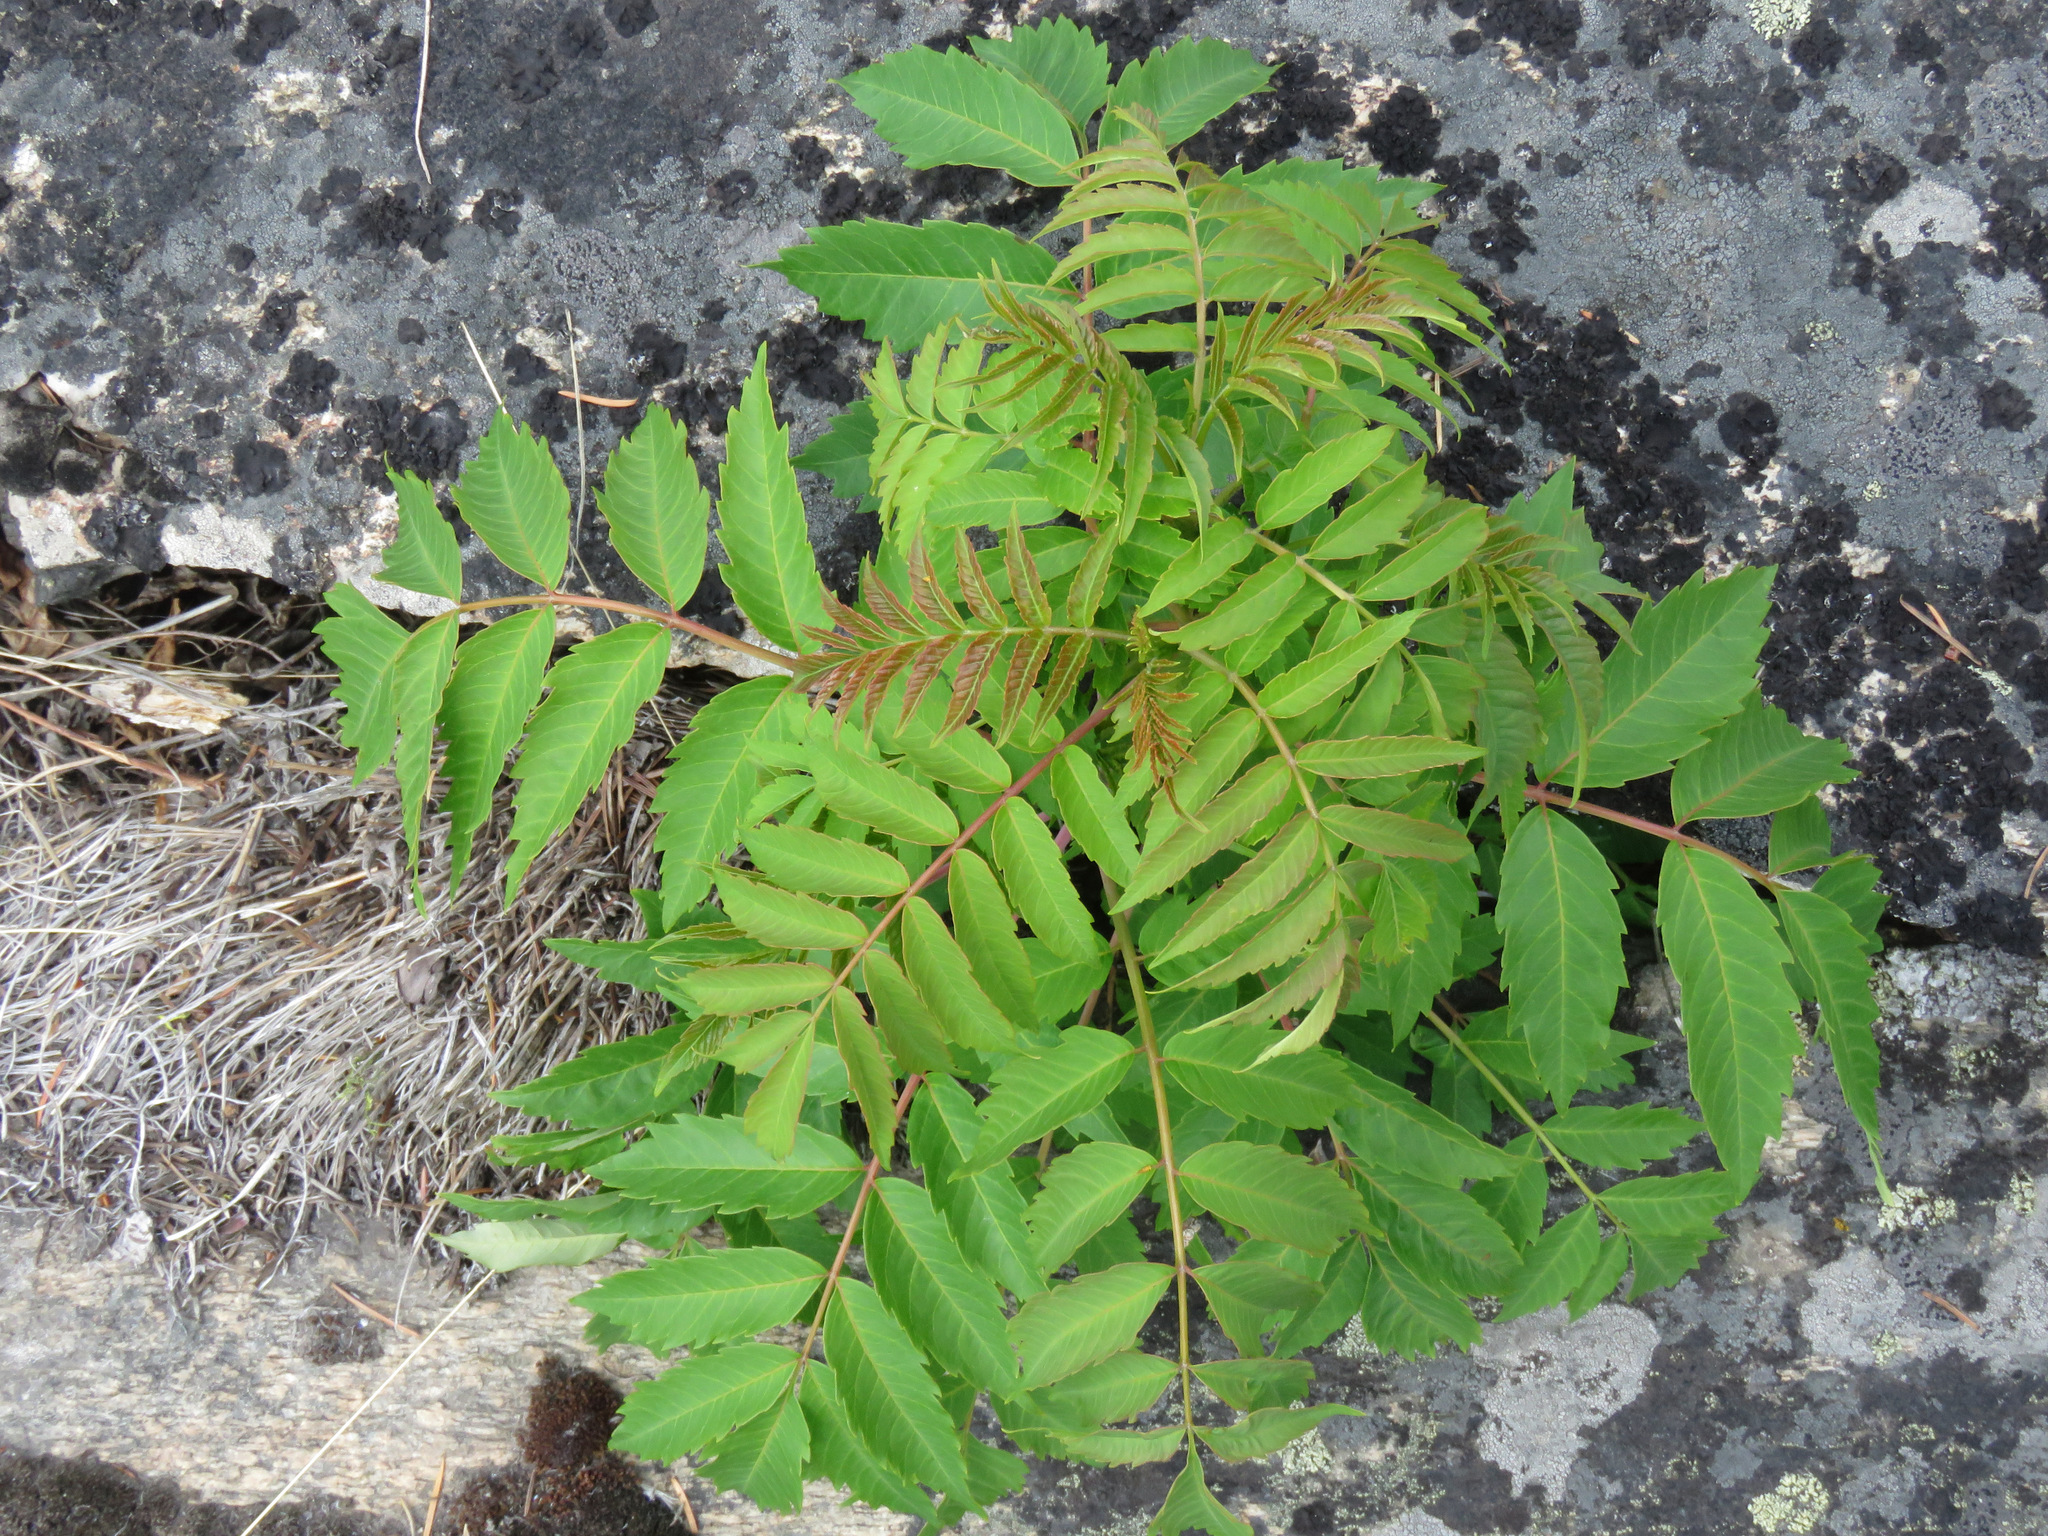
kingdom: Plantae
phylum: Tracheophyta
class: Magnoliopsida
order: Sapindales
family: Anacardiaceae
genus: Rhus
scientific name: Rhus glabra
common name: Scarlet sumac
